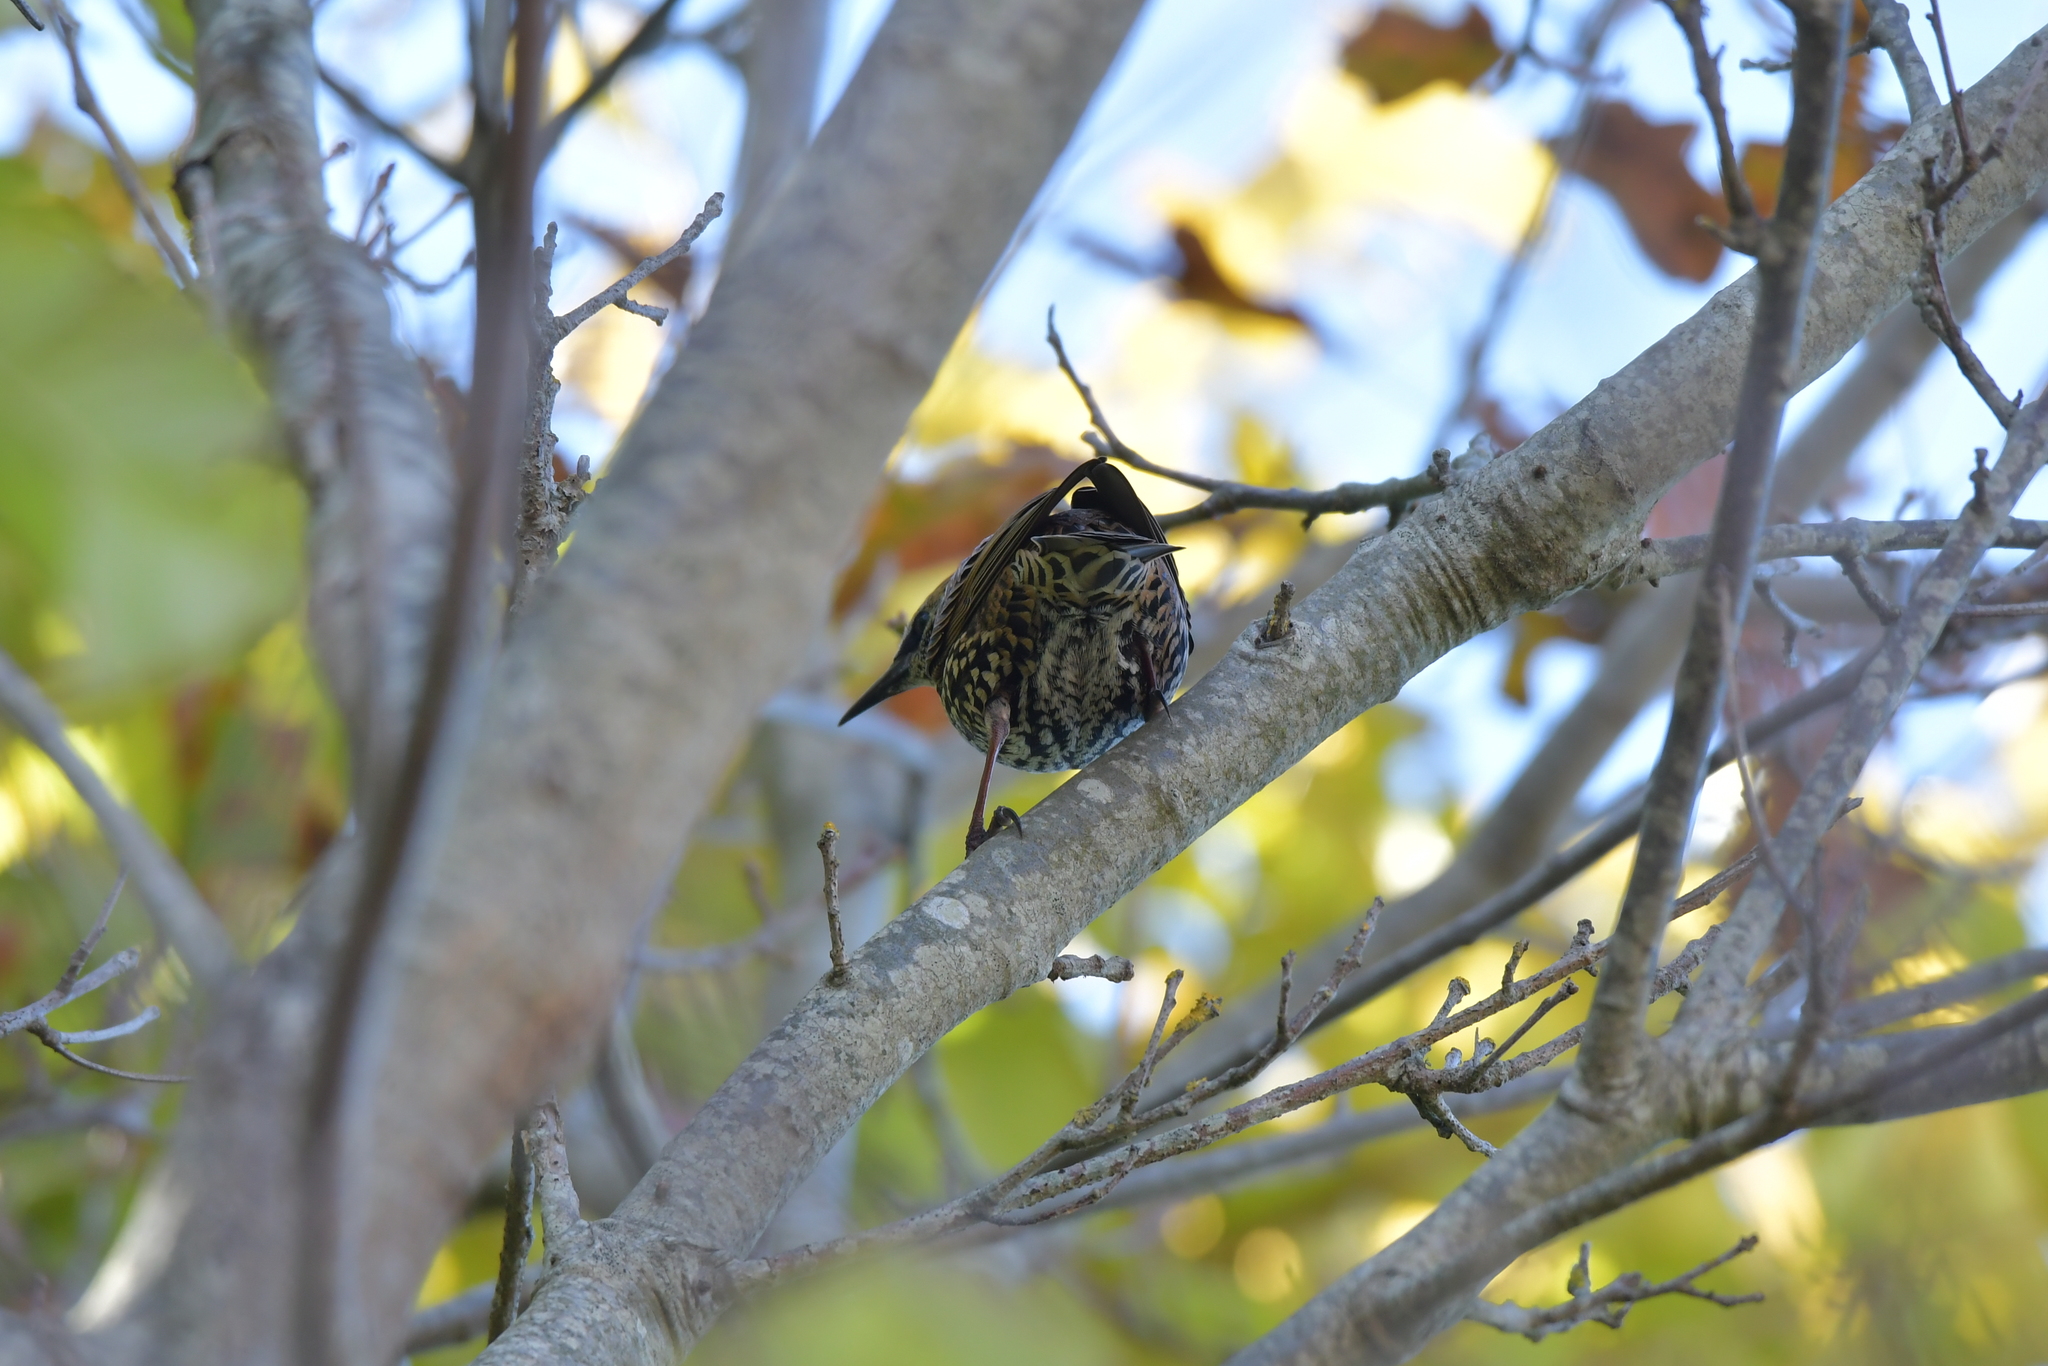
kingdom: Animalia
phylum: Chordata
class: Aves
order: Passeriformes
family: Sturnidae
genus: Sturnus
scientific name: Sturnus vulgaris
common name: Common starling
